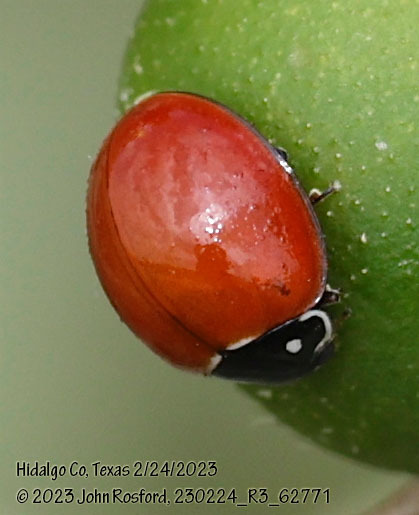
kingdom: Animalia
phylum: Arthropoda
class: Insecta
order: Coleoptera
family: Coccinellidae
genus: Cycloneda
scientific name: Cycloneda sanguinea
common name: Ladybird beetle
